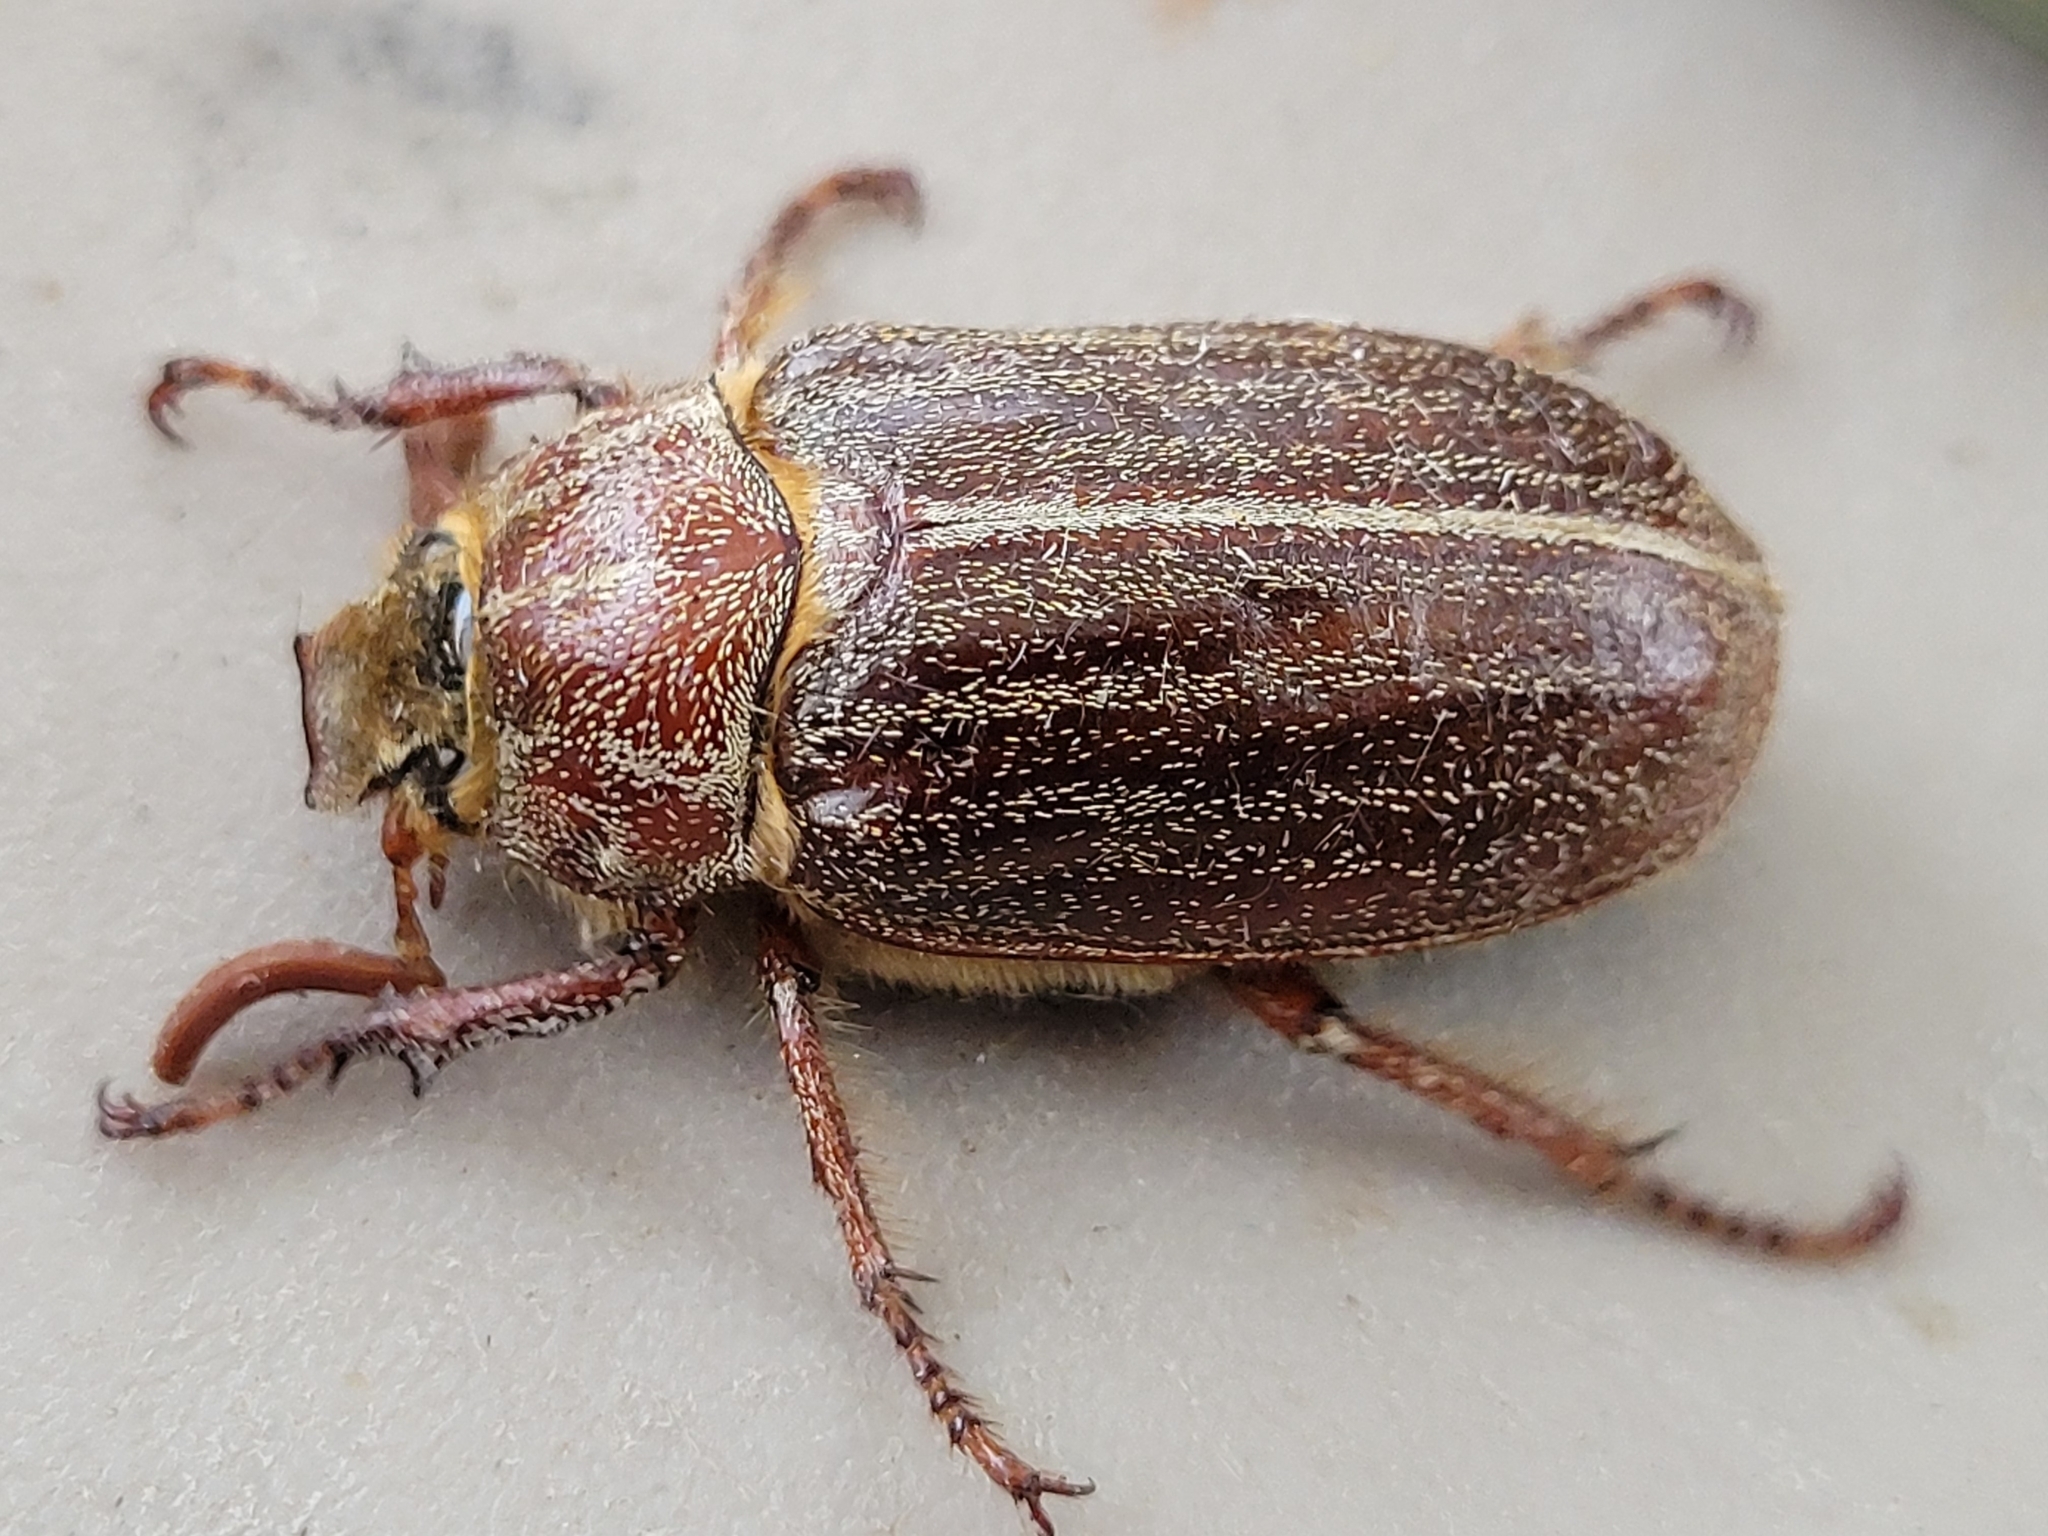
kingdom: Animalia
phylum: Arthropoda
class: Insecta
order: Coleoptera
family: Scarabaeidae
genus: Polyphylla
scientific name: Polyphylla hammondi
